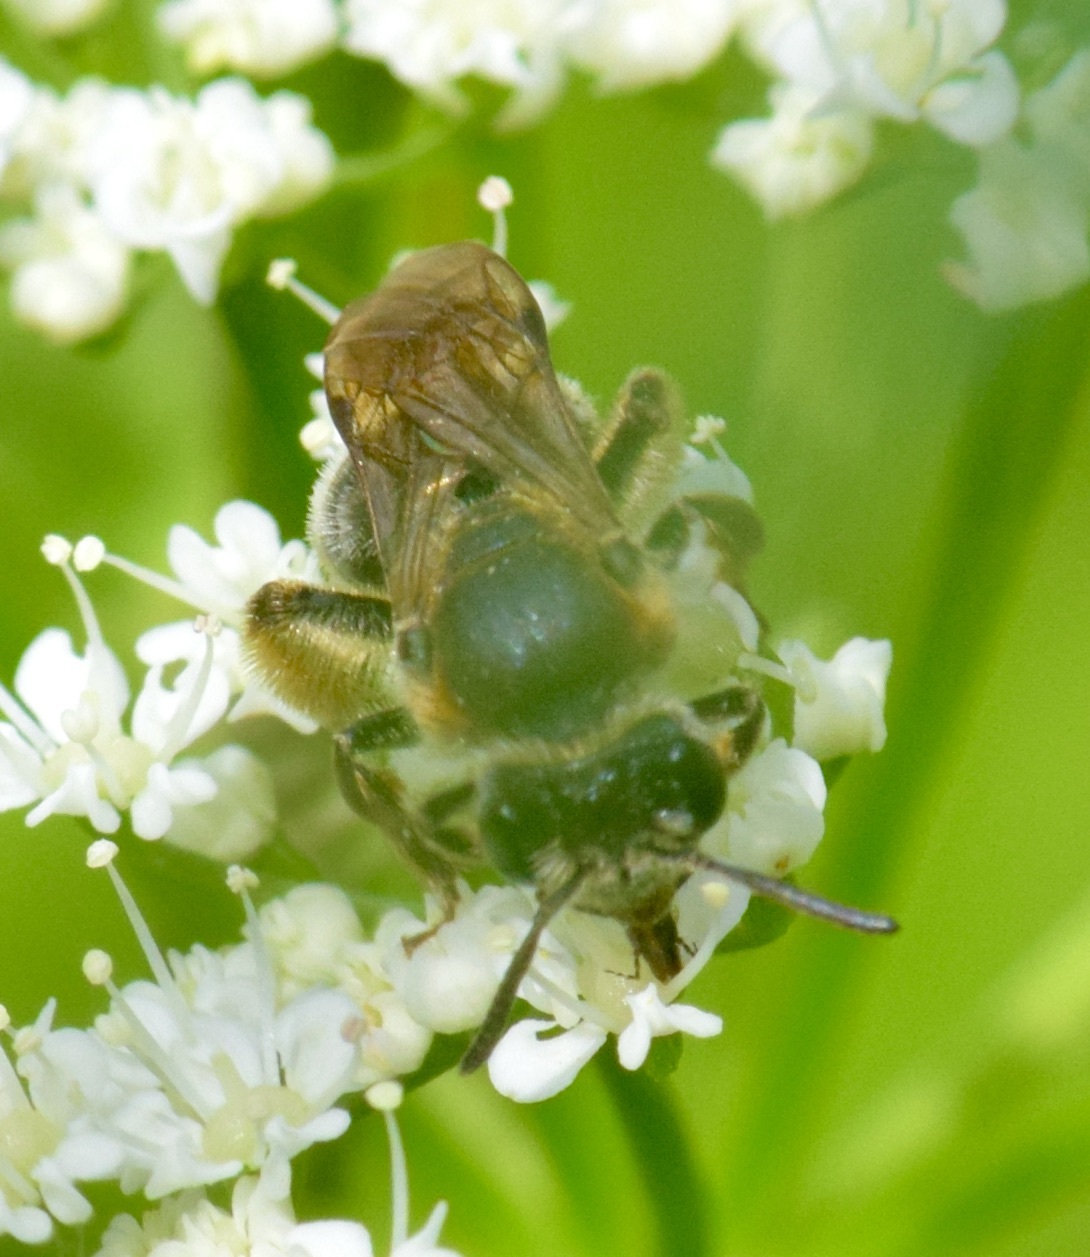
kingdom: Animalia
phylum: Arthropoda
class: Insecta
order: Hymenoptera
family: Andrenidae
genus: Andrena
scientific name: Andrena alleghaniensis
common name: Allegheny mining bee
